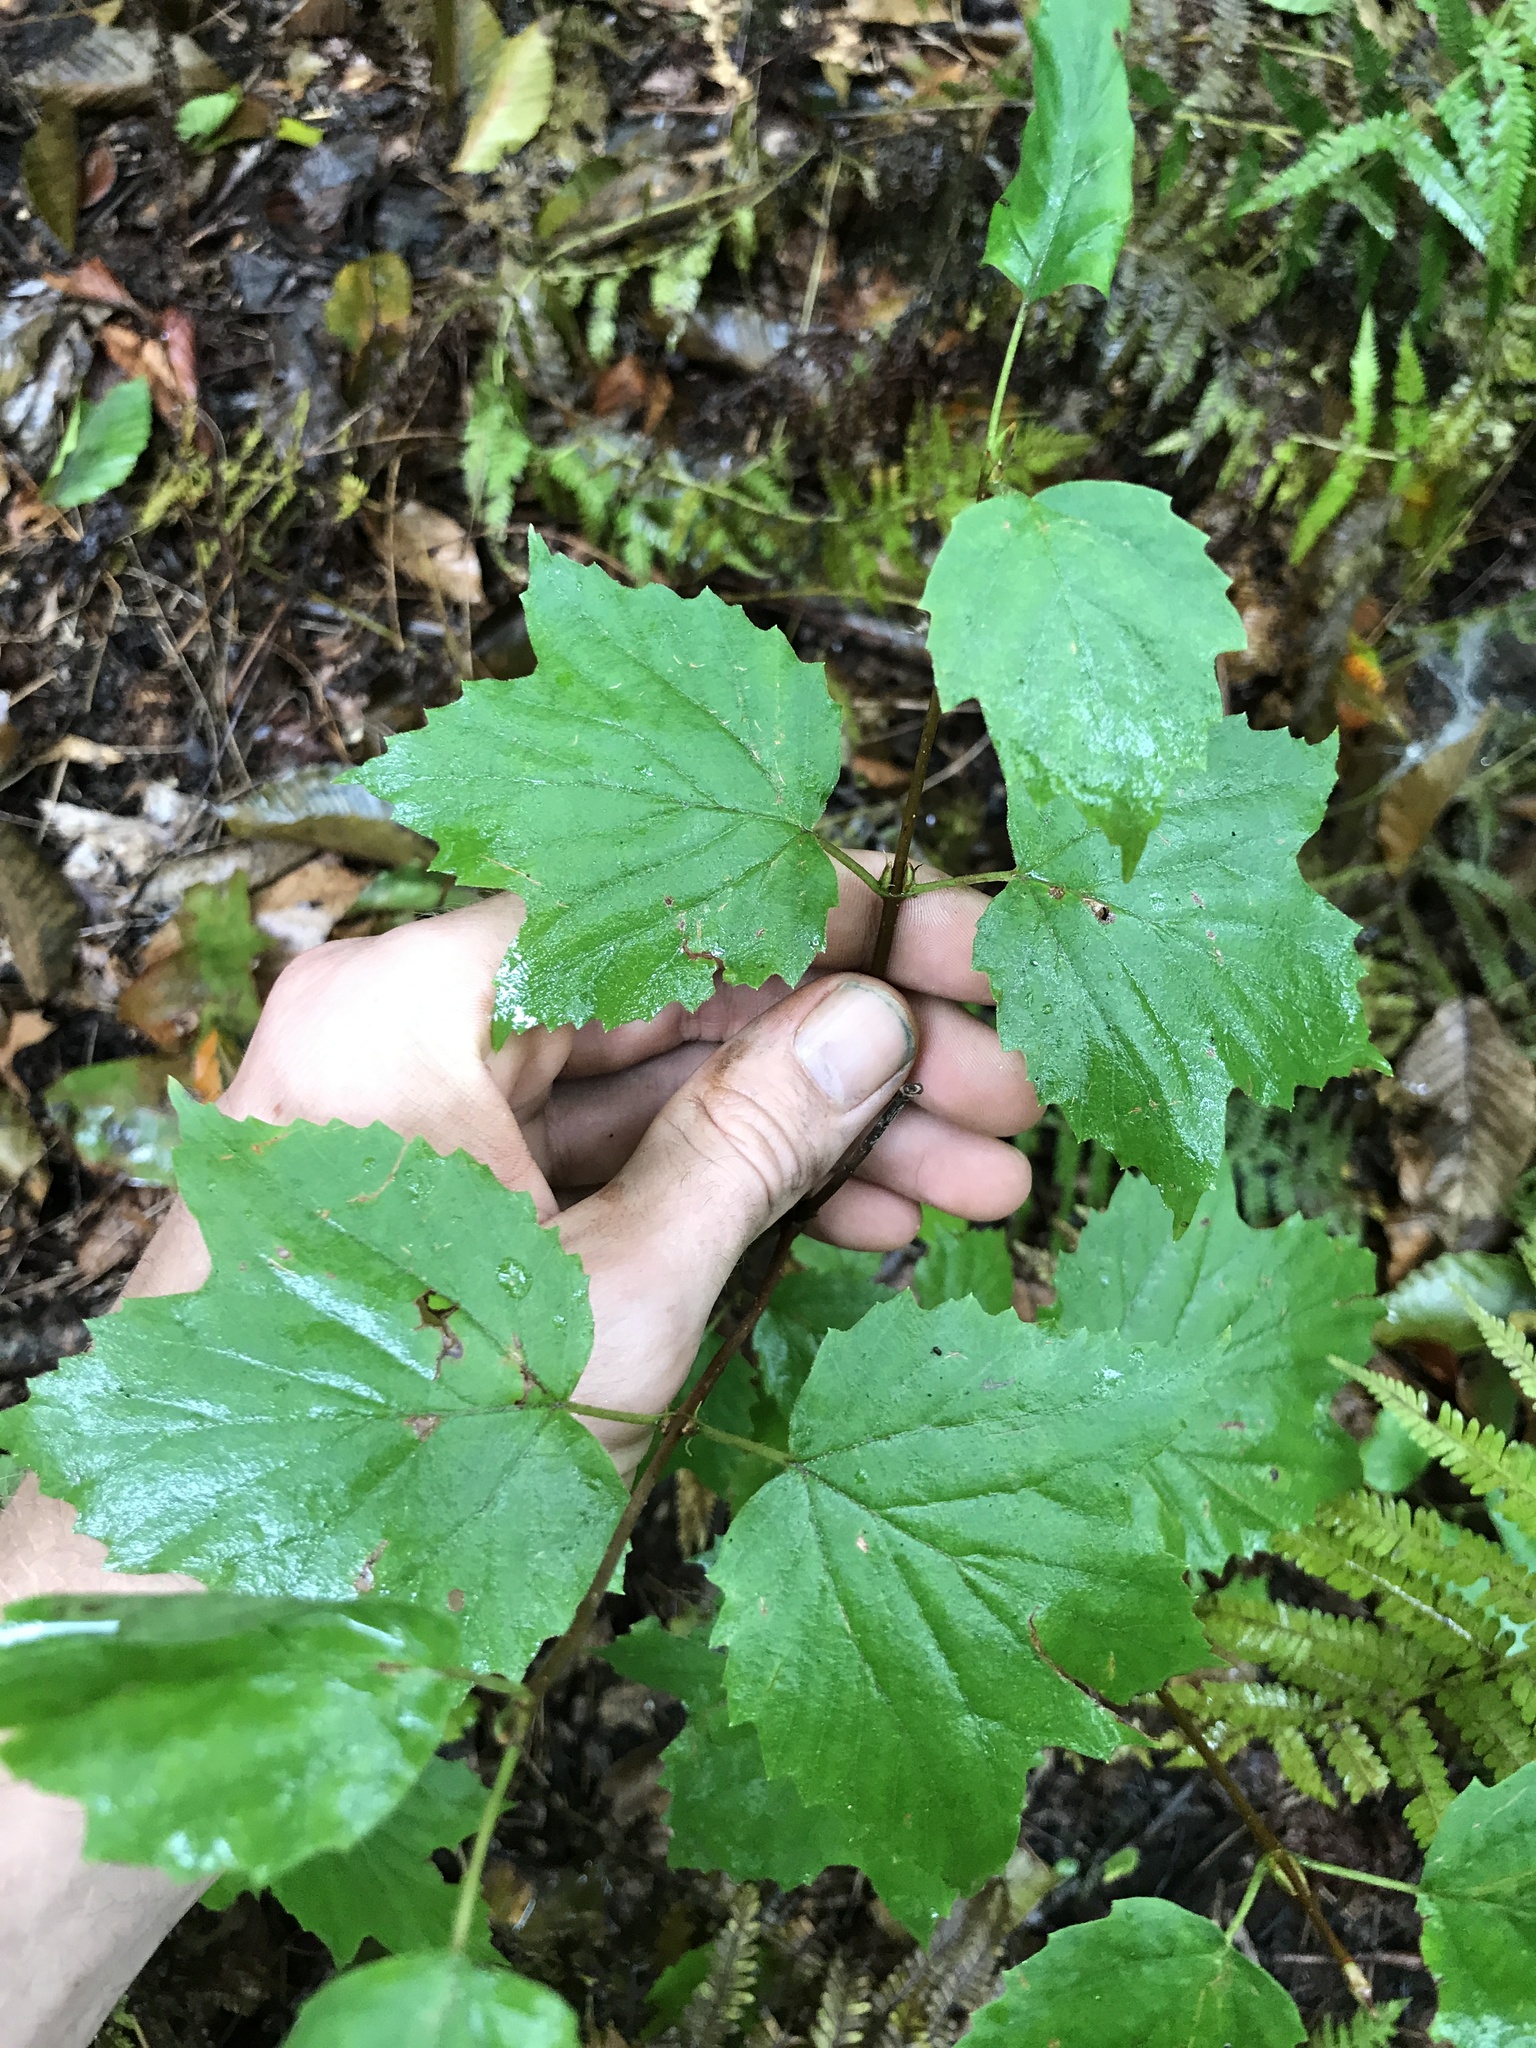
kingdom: Plantae
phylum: Tracheophyta
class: Magnoliopsida
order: Dipsacales
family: Viburnaceae
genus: Viburnum
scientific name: Viburnum acerifolium
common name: Dockmackie
